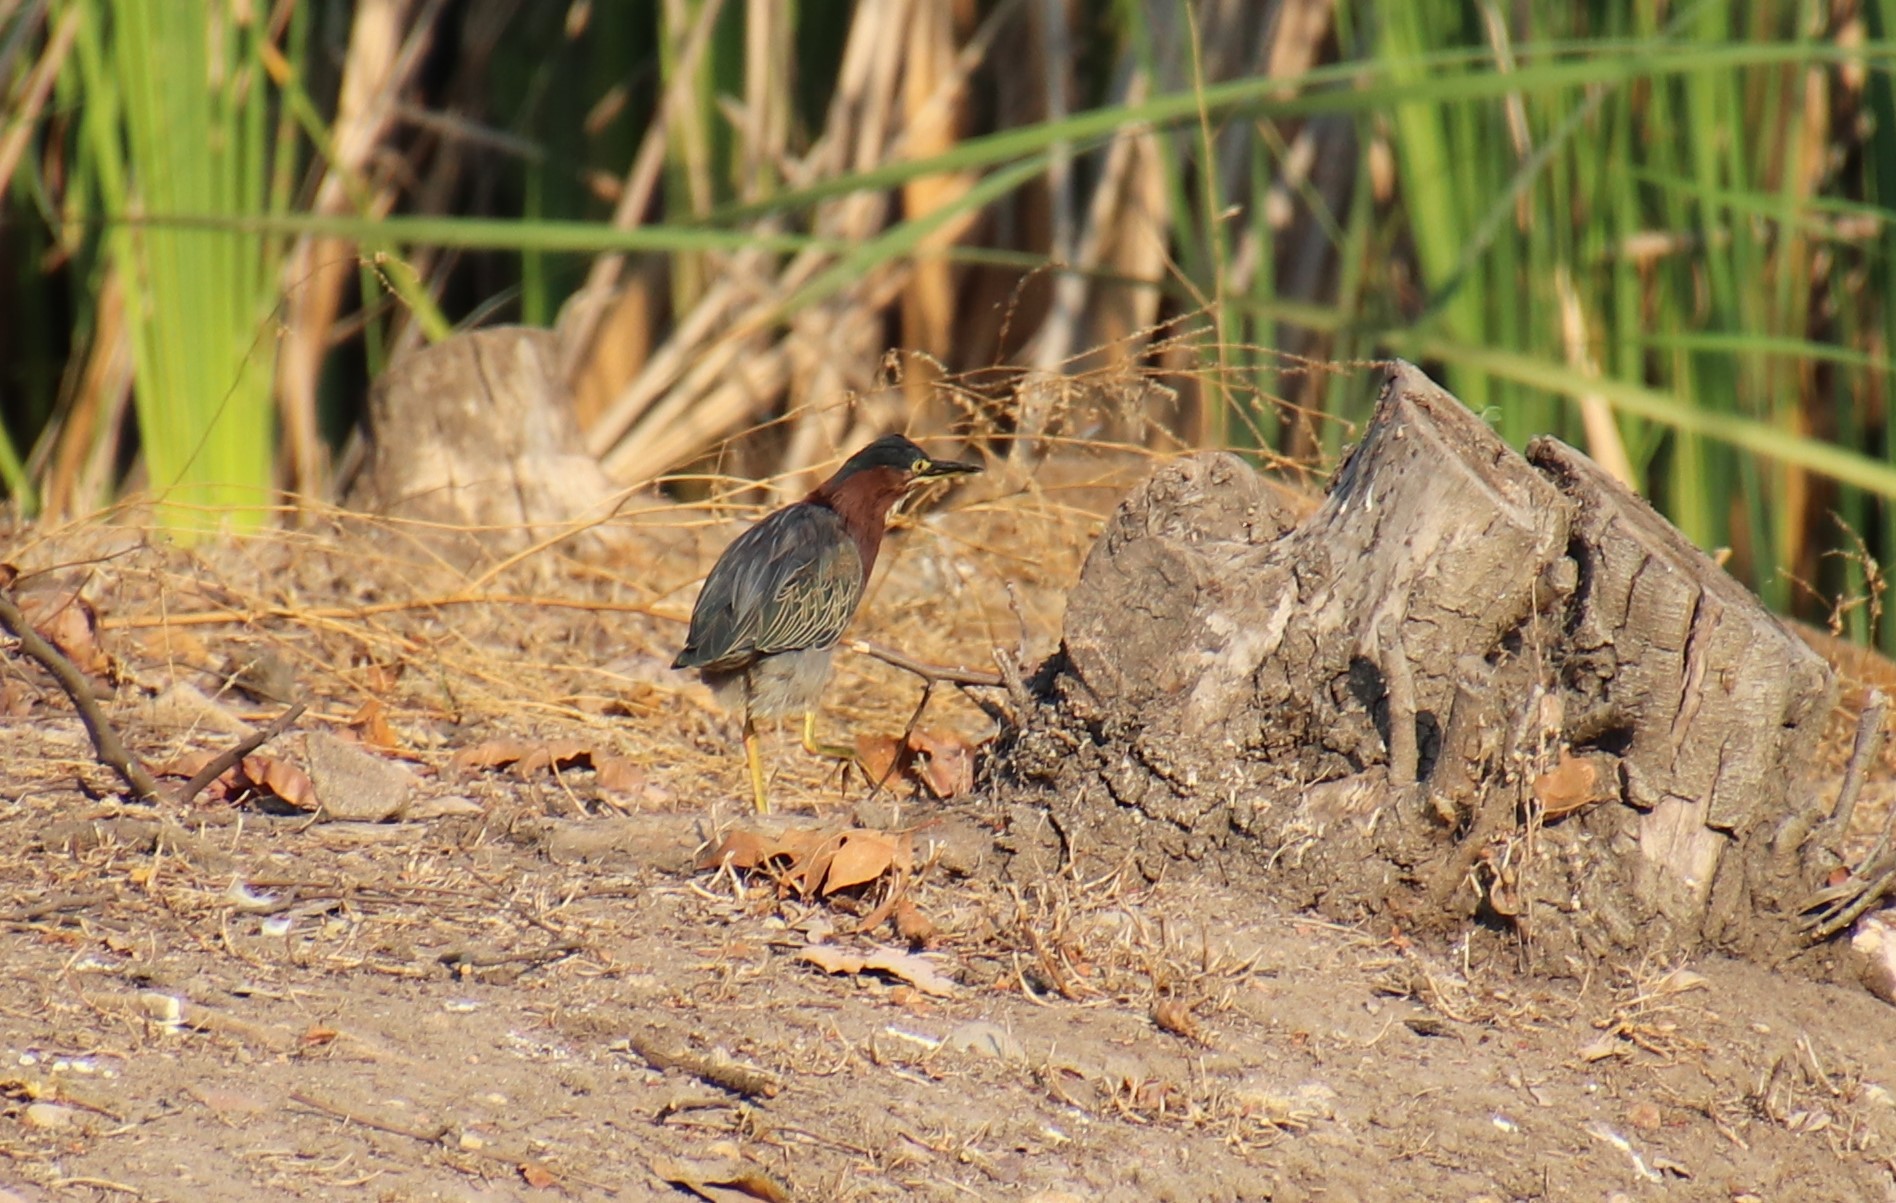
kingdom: Animalia
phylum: Chordata
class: Aves
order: Pelecaniformes
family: Ardeidae
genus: Butorides
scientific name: Butorides virescens
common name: Green heron
